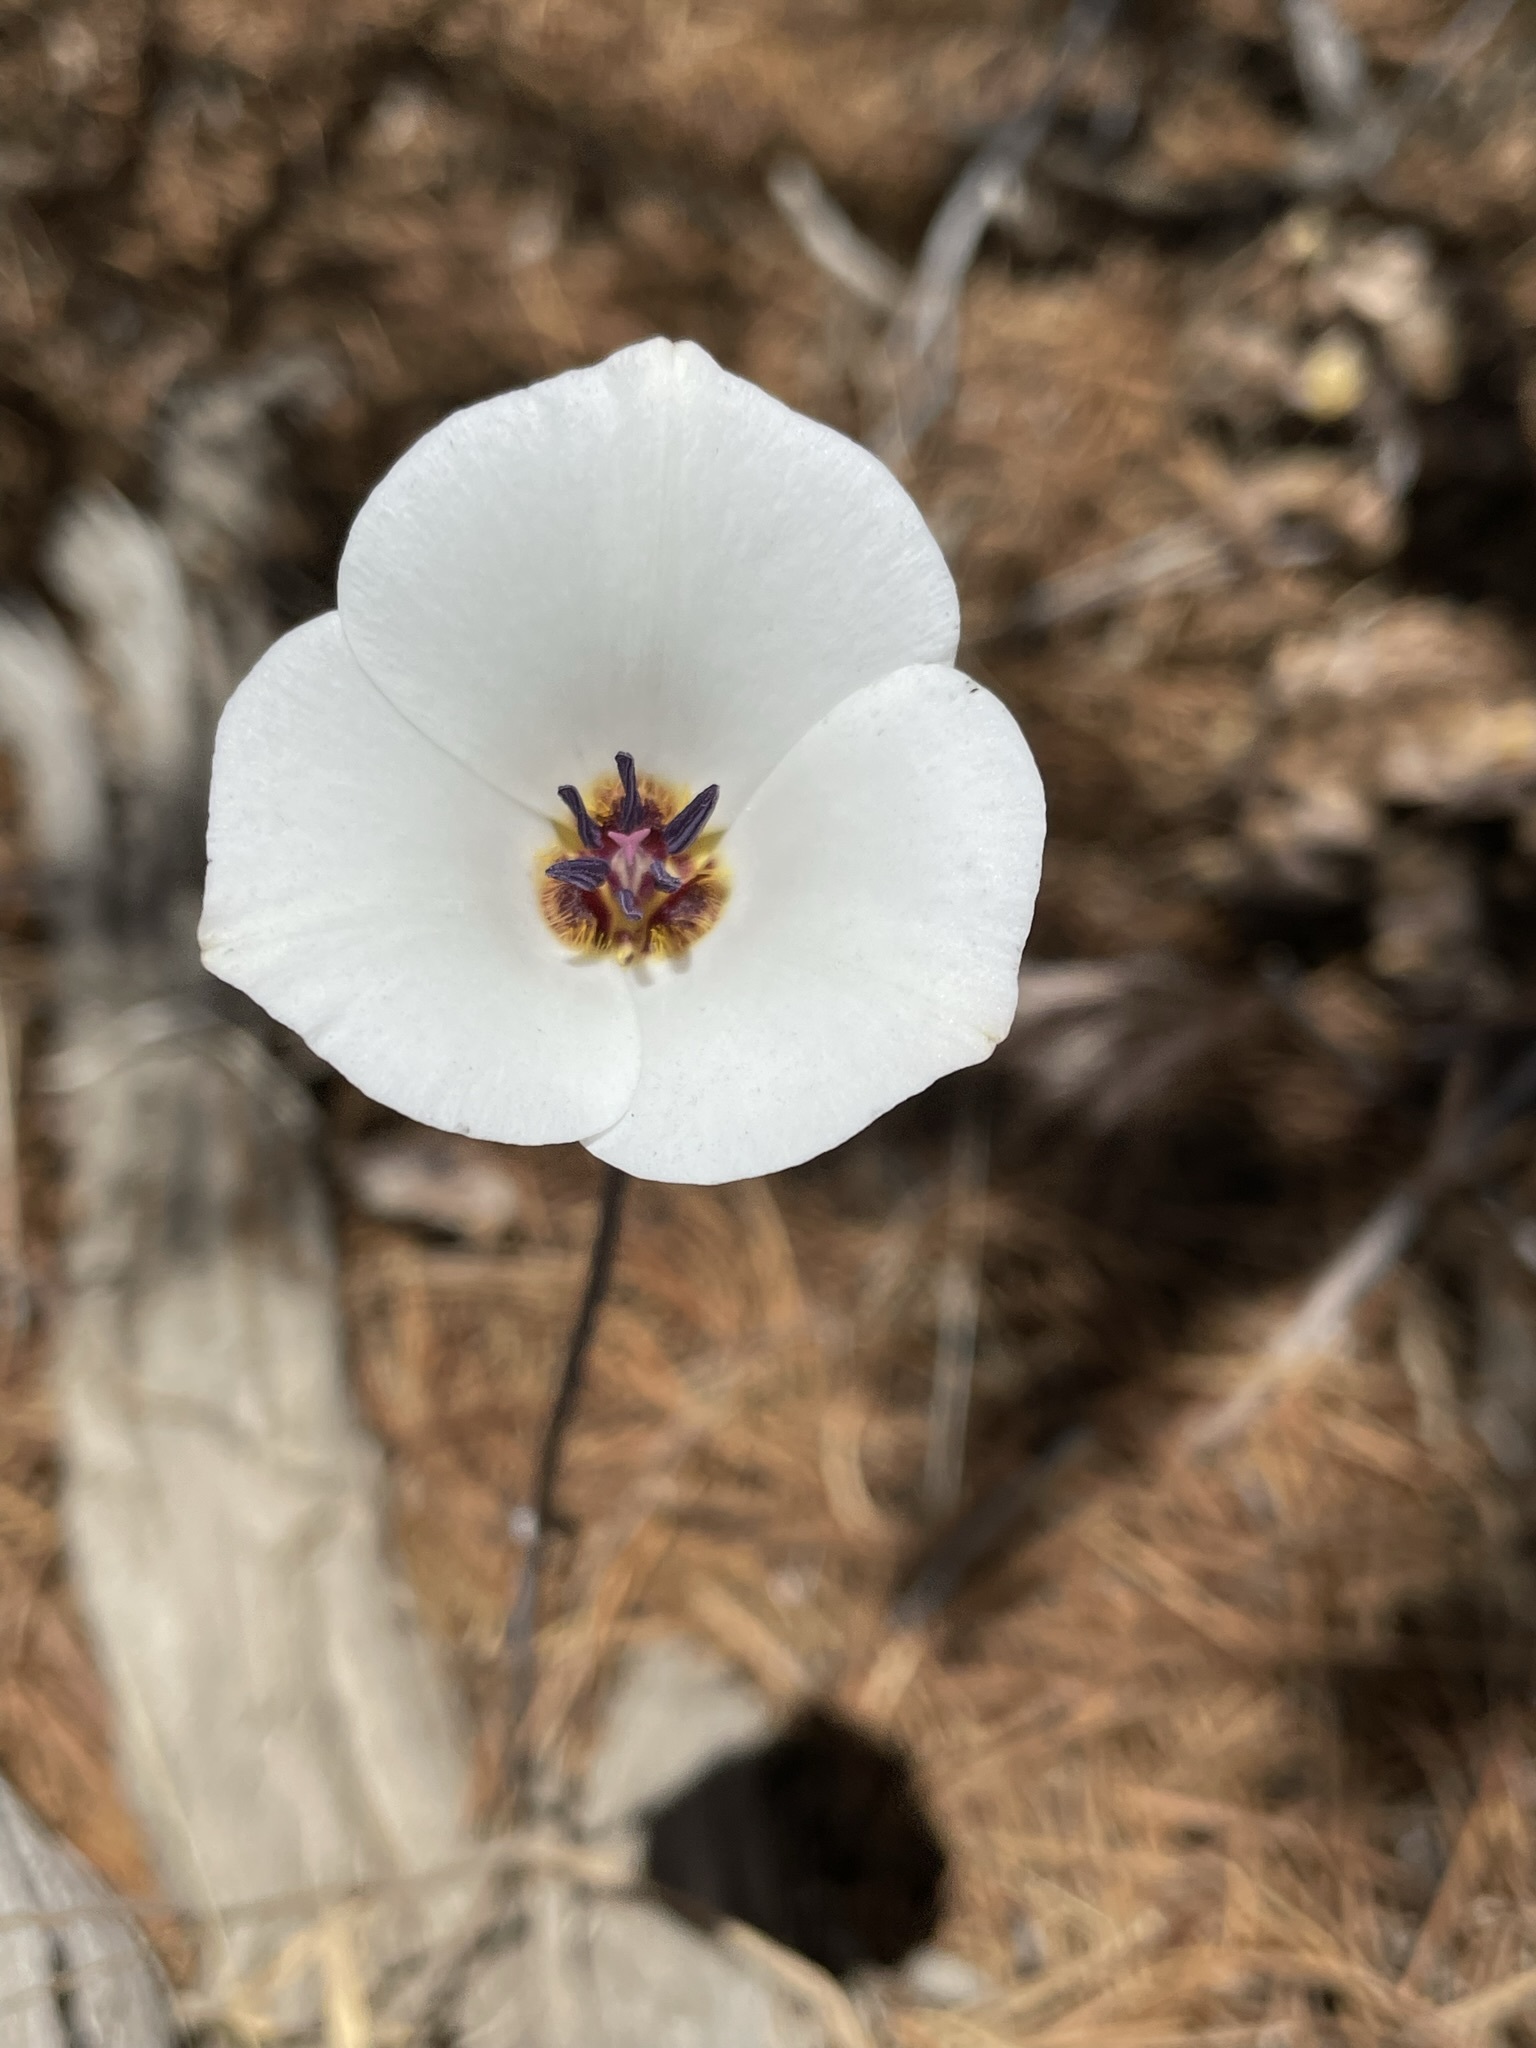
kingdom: Plantae
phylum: Tracheophyta
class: Liliopsida
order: Liliales
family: Liliaceae
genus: Calochortus
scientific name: Calochortus invenustus
